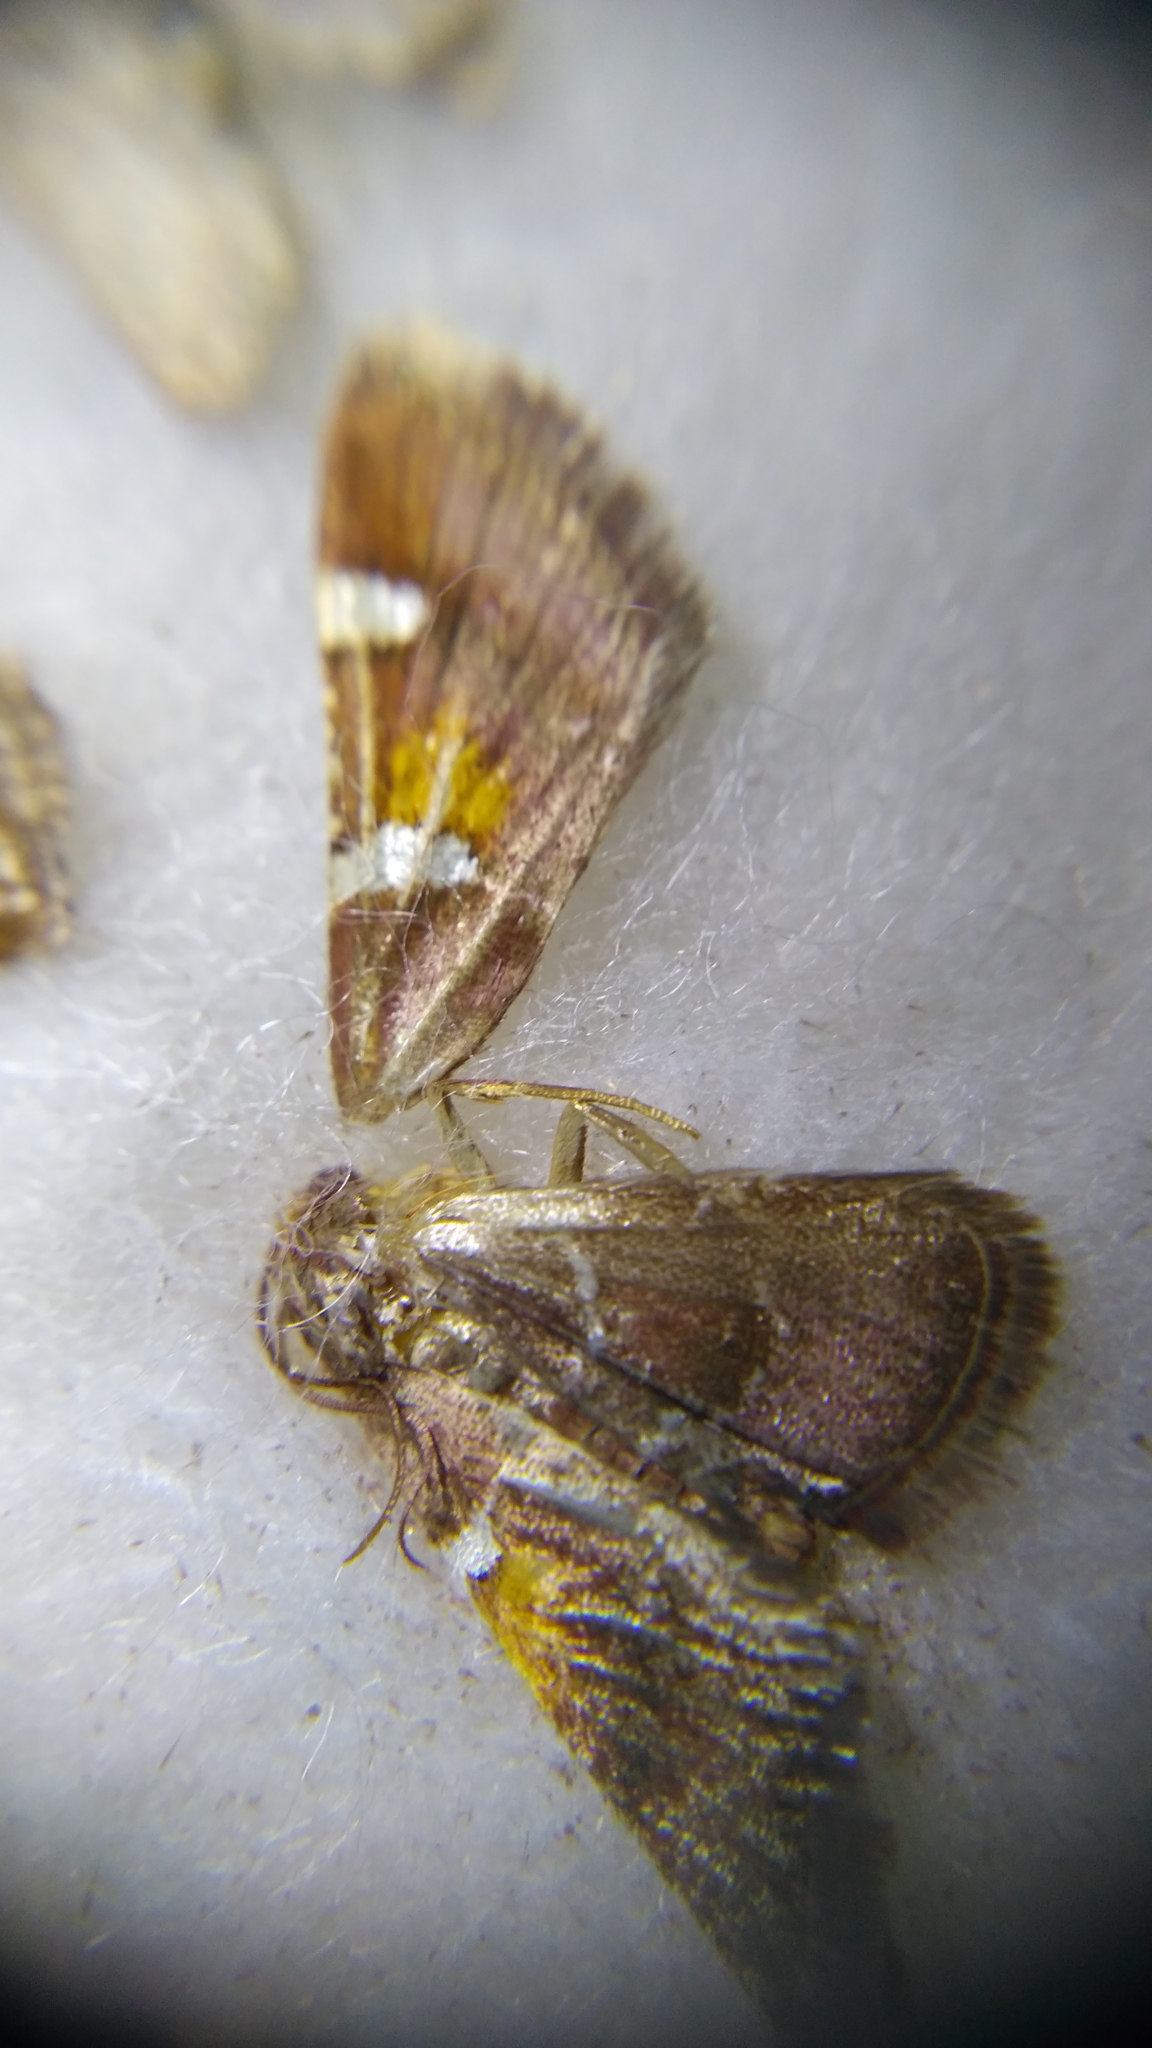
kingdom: Animalia
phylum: Arthropoda
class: Insecta
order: Lepidoptera
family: Pyralidae
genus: Pyralis
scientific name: Pyralis regalis
